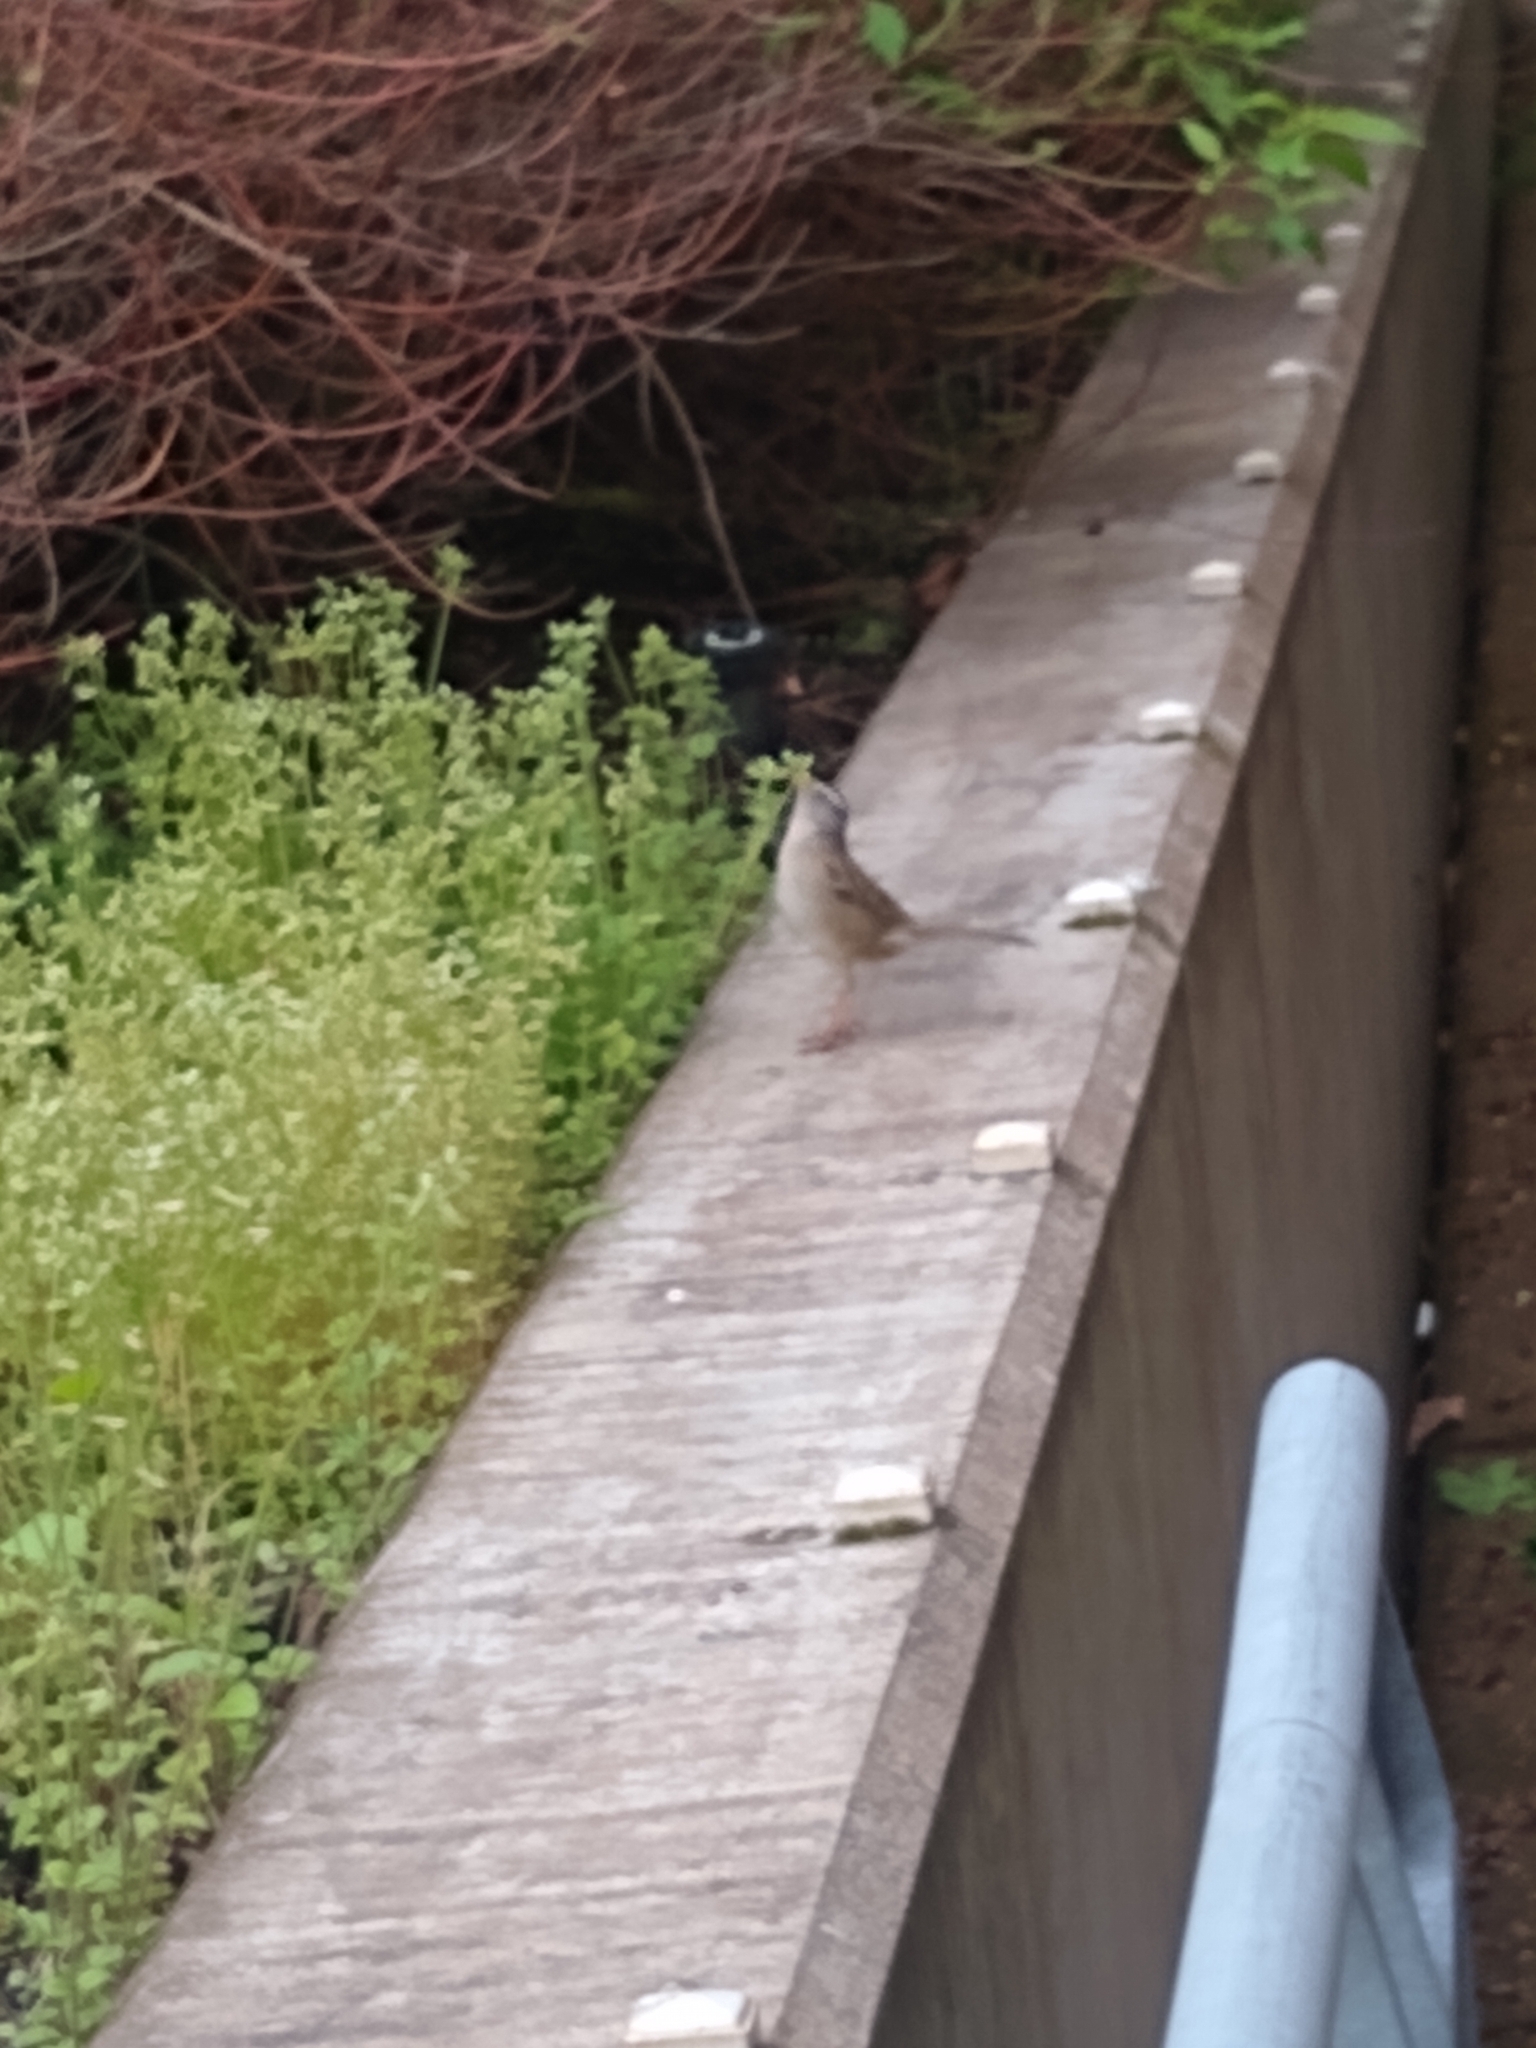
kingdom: Animalia
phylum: Chordata
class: Aves
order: Passeriformes
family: Passerellidae
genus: Zonotrichia
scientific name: Zonotrichia leucophrys
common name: White-crowned sparrow
